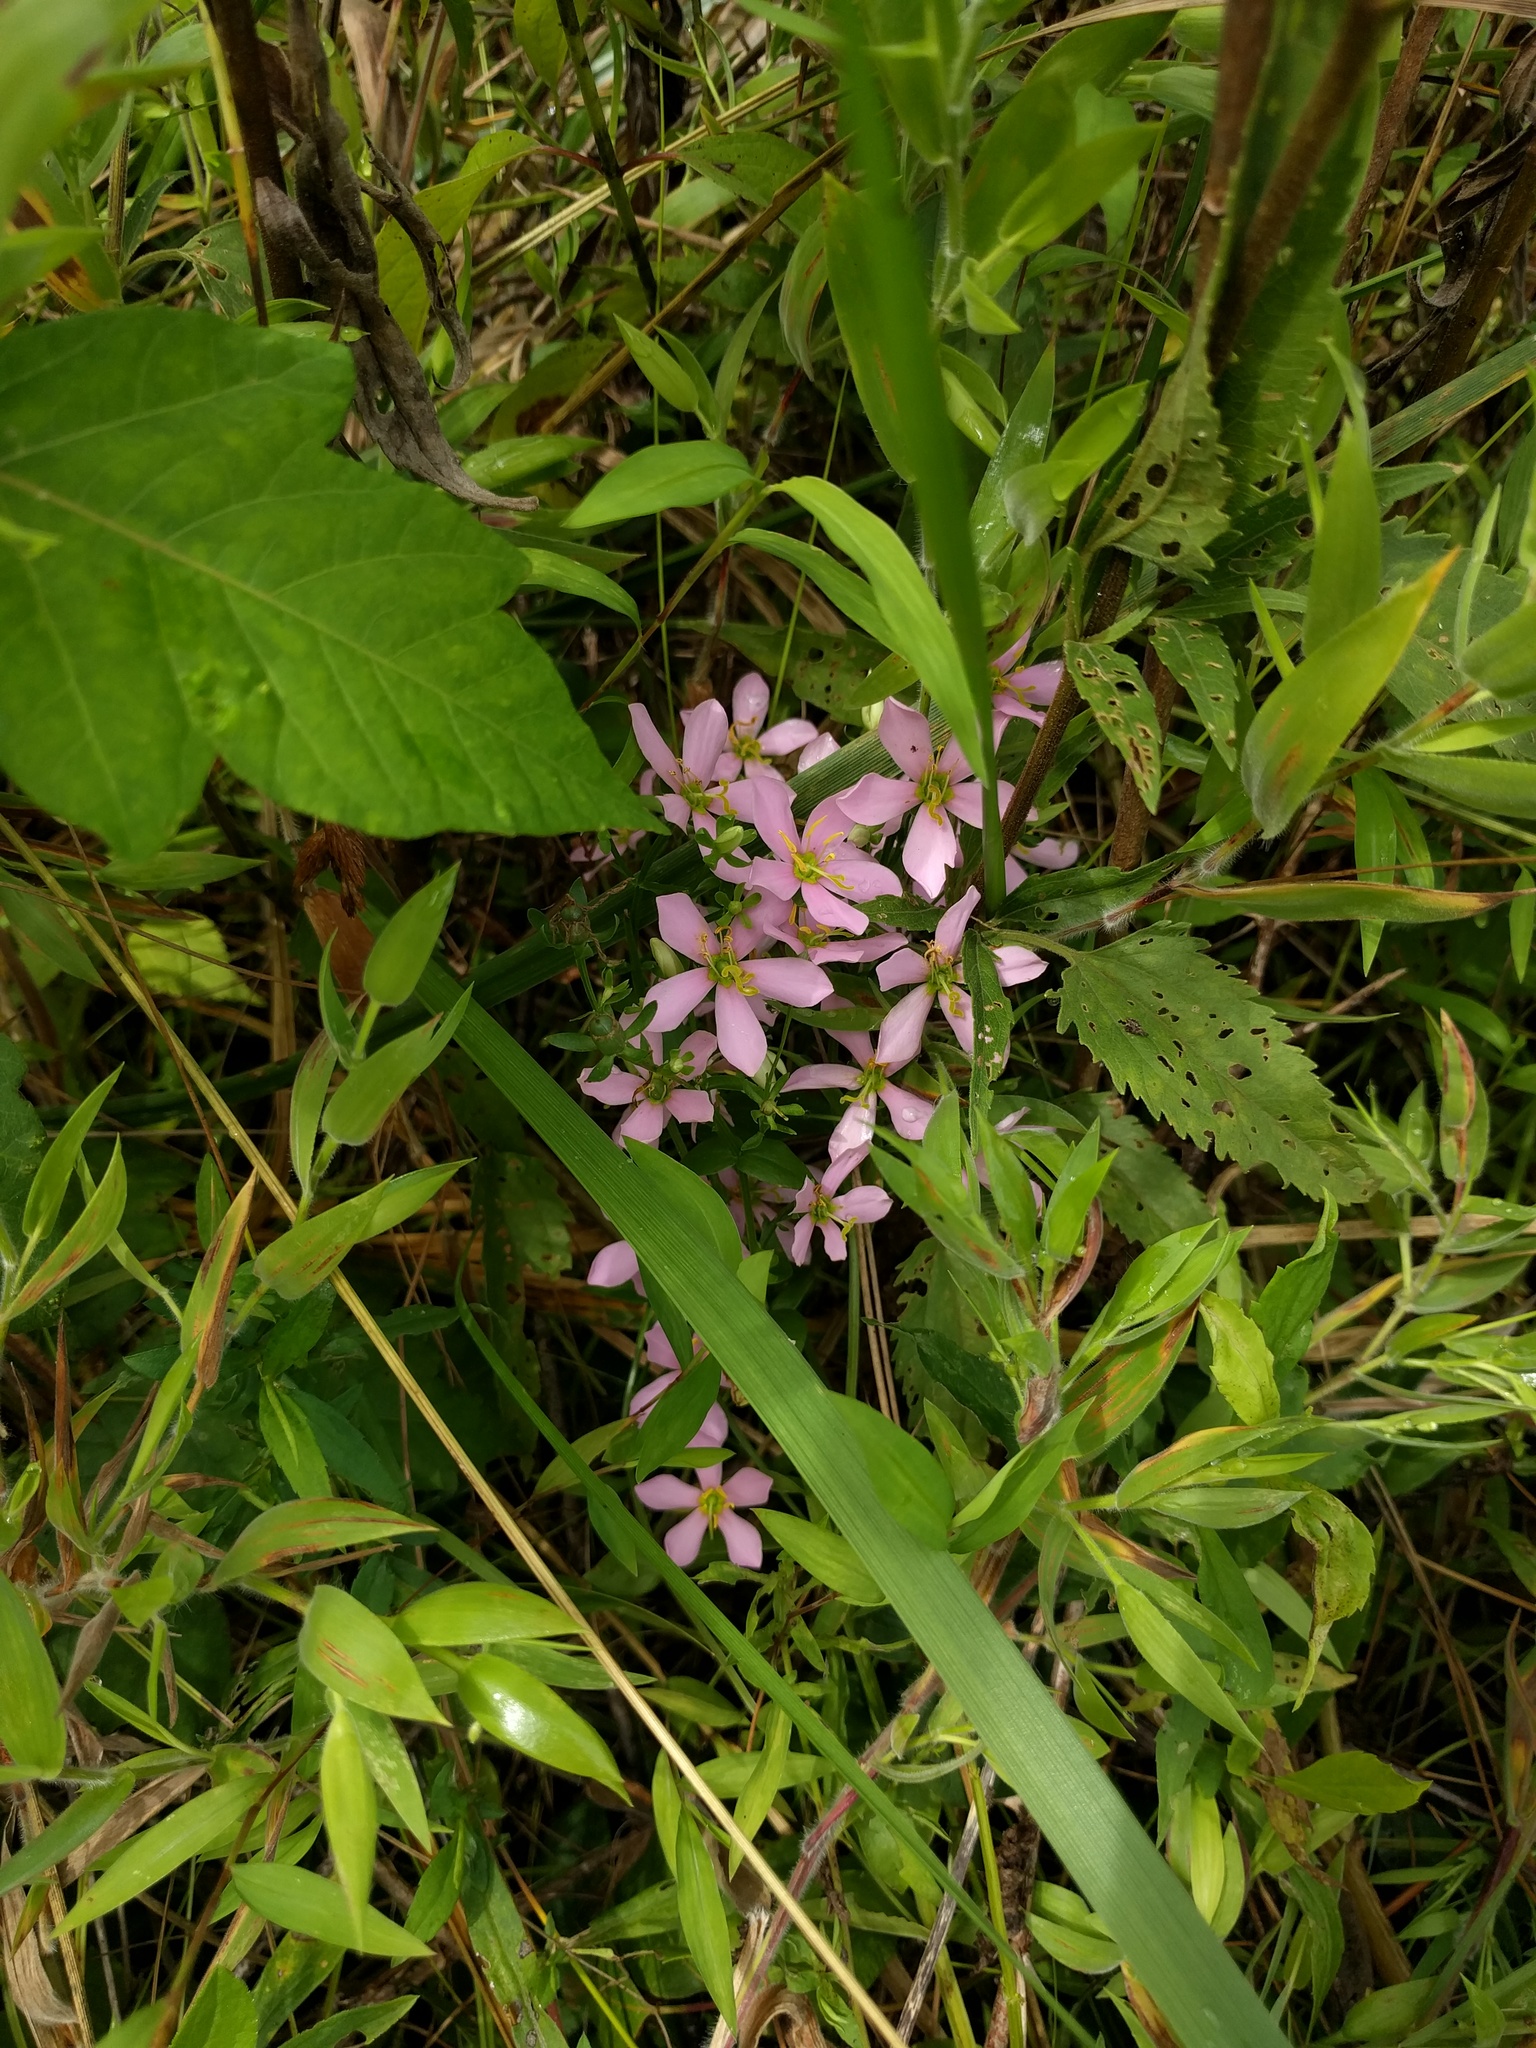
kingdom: Plantae
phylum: Tracheophyta
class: Magnoliopsida
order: Gentianales
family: Gentianaceae
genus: Sabatia
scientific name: Sabatia angularis
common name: Rose-pink
